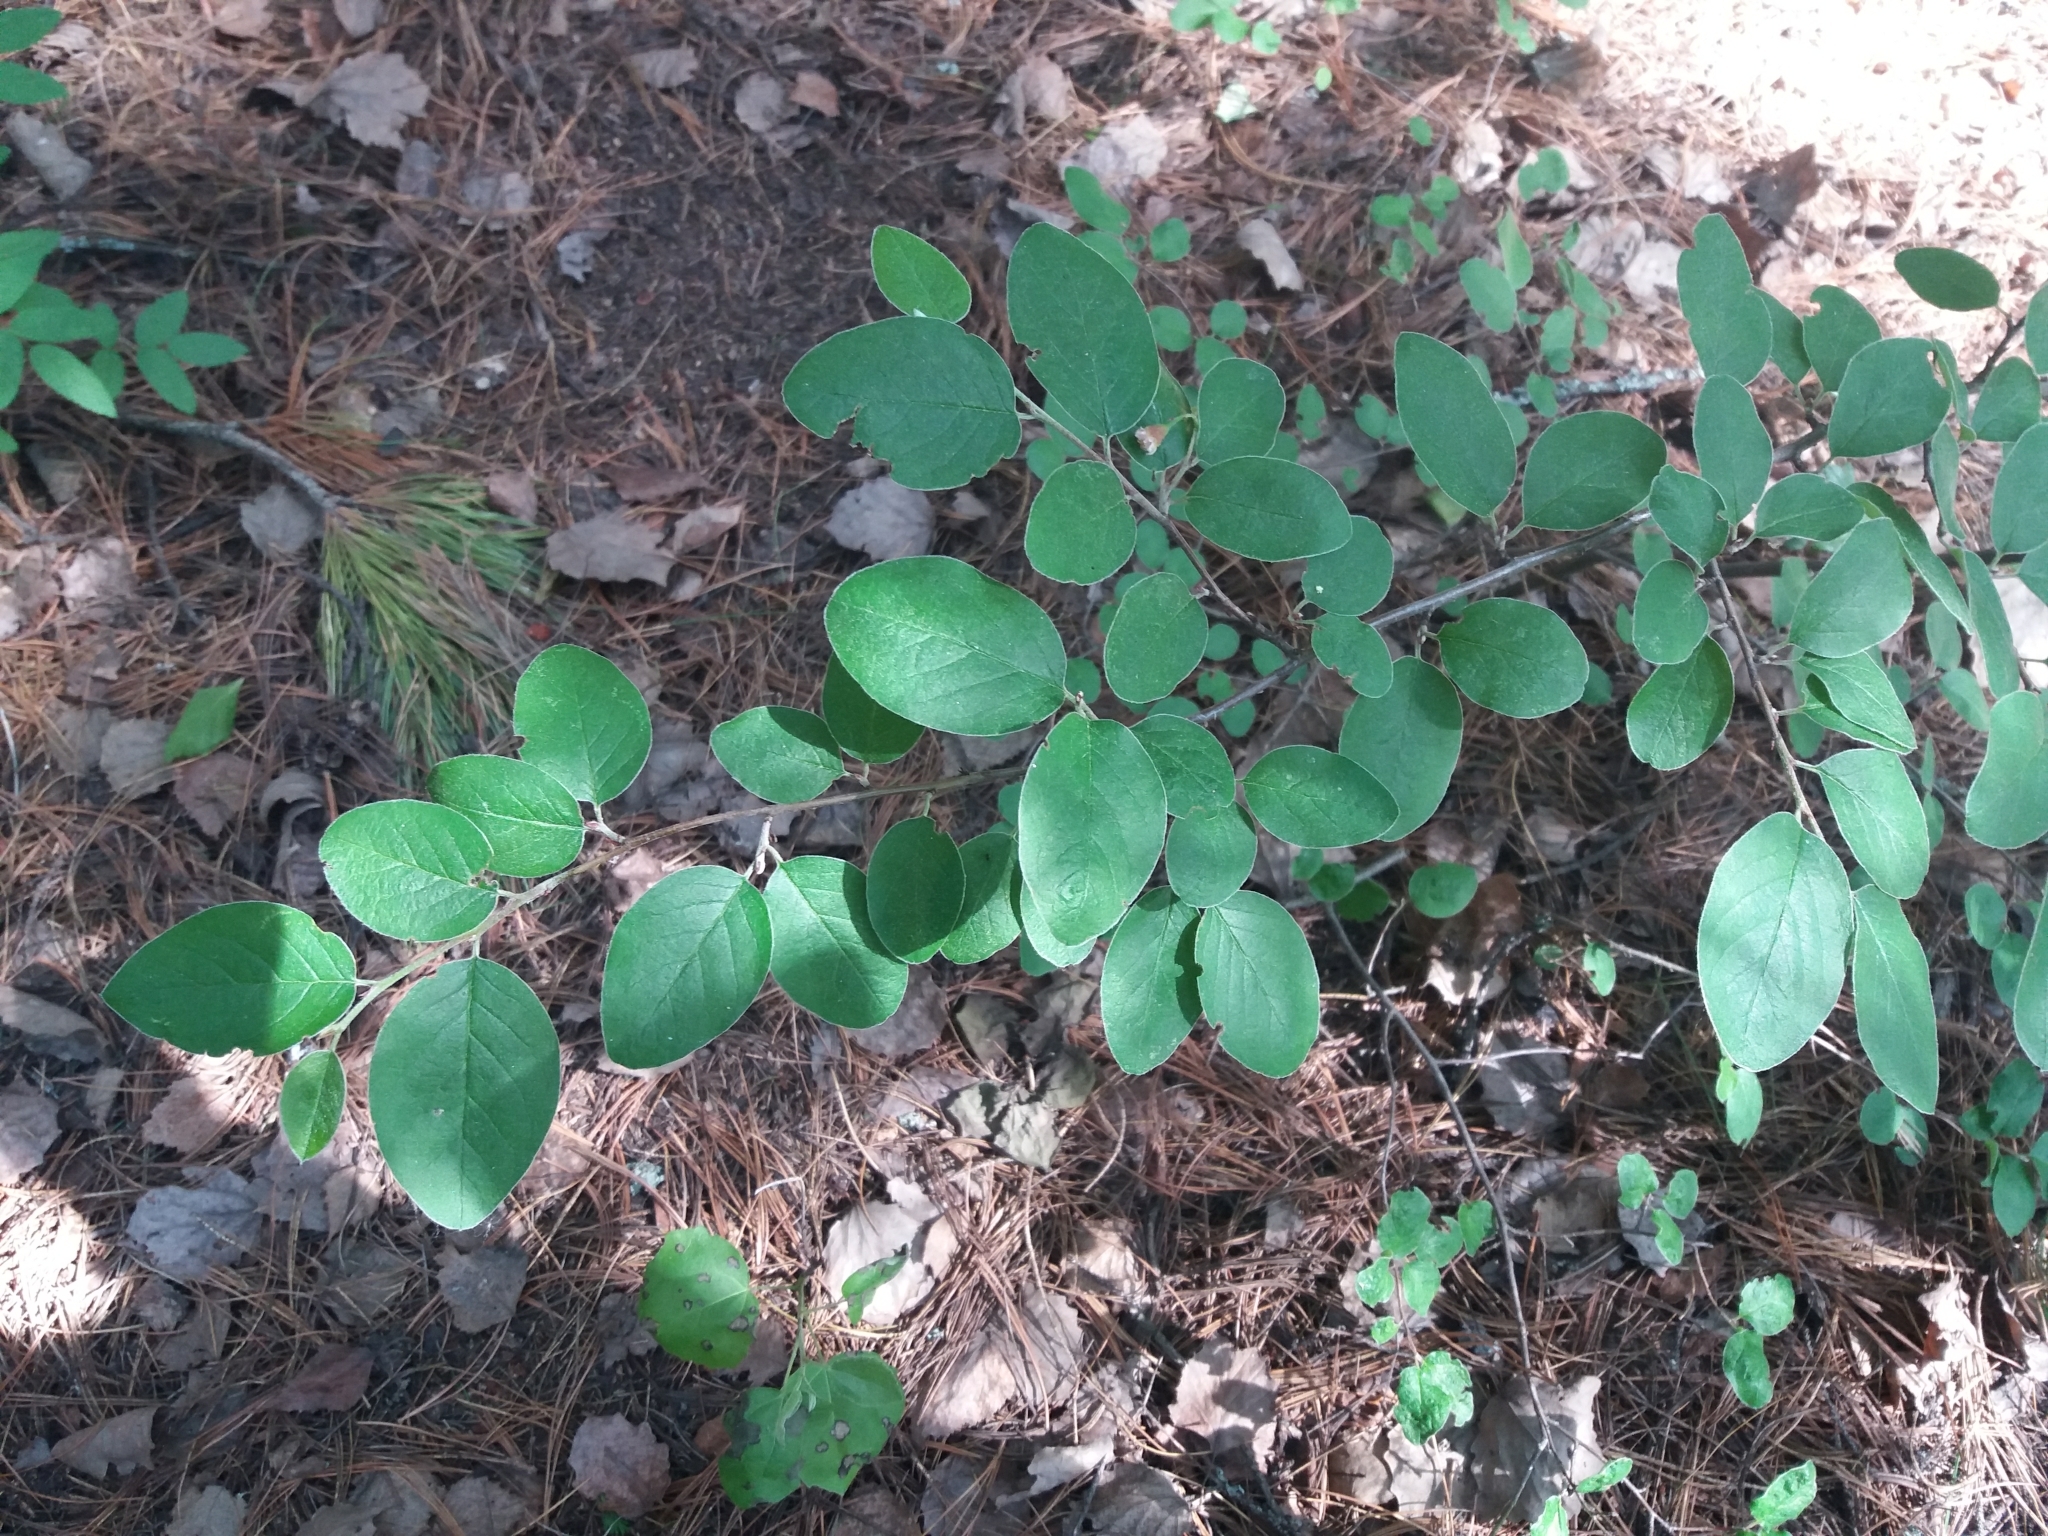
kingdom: Plantae
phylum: Tracheophyta
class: Magnoliopsida
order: Rosales
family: Rosaceae
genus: Cotoneaster
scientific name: Cotoneaster melanocarpus
